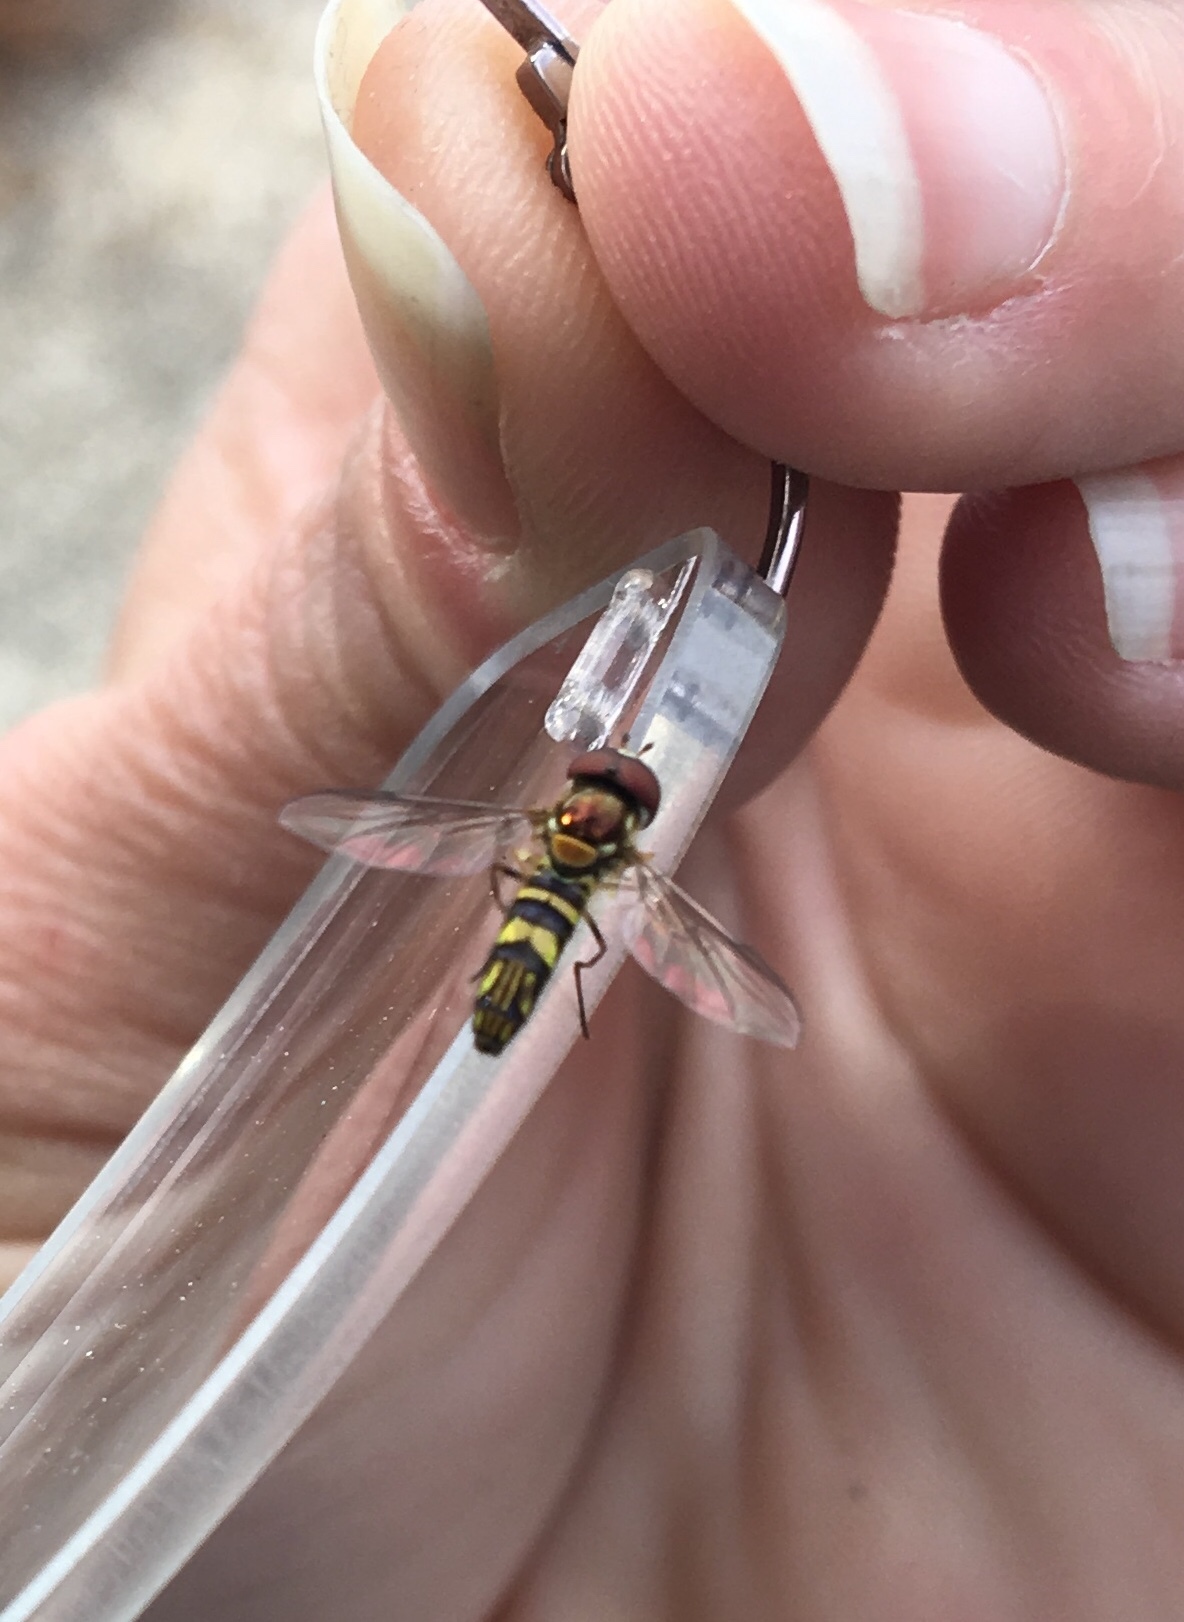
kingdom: Animalia
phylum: Arthropoda
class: Insecta
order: Diptera
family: Syrphidae
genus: Allograpta
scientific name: Allograpta obliqua
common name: Common oblique syrphid
